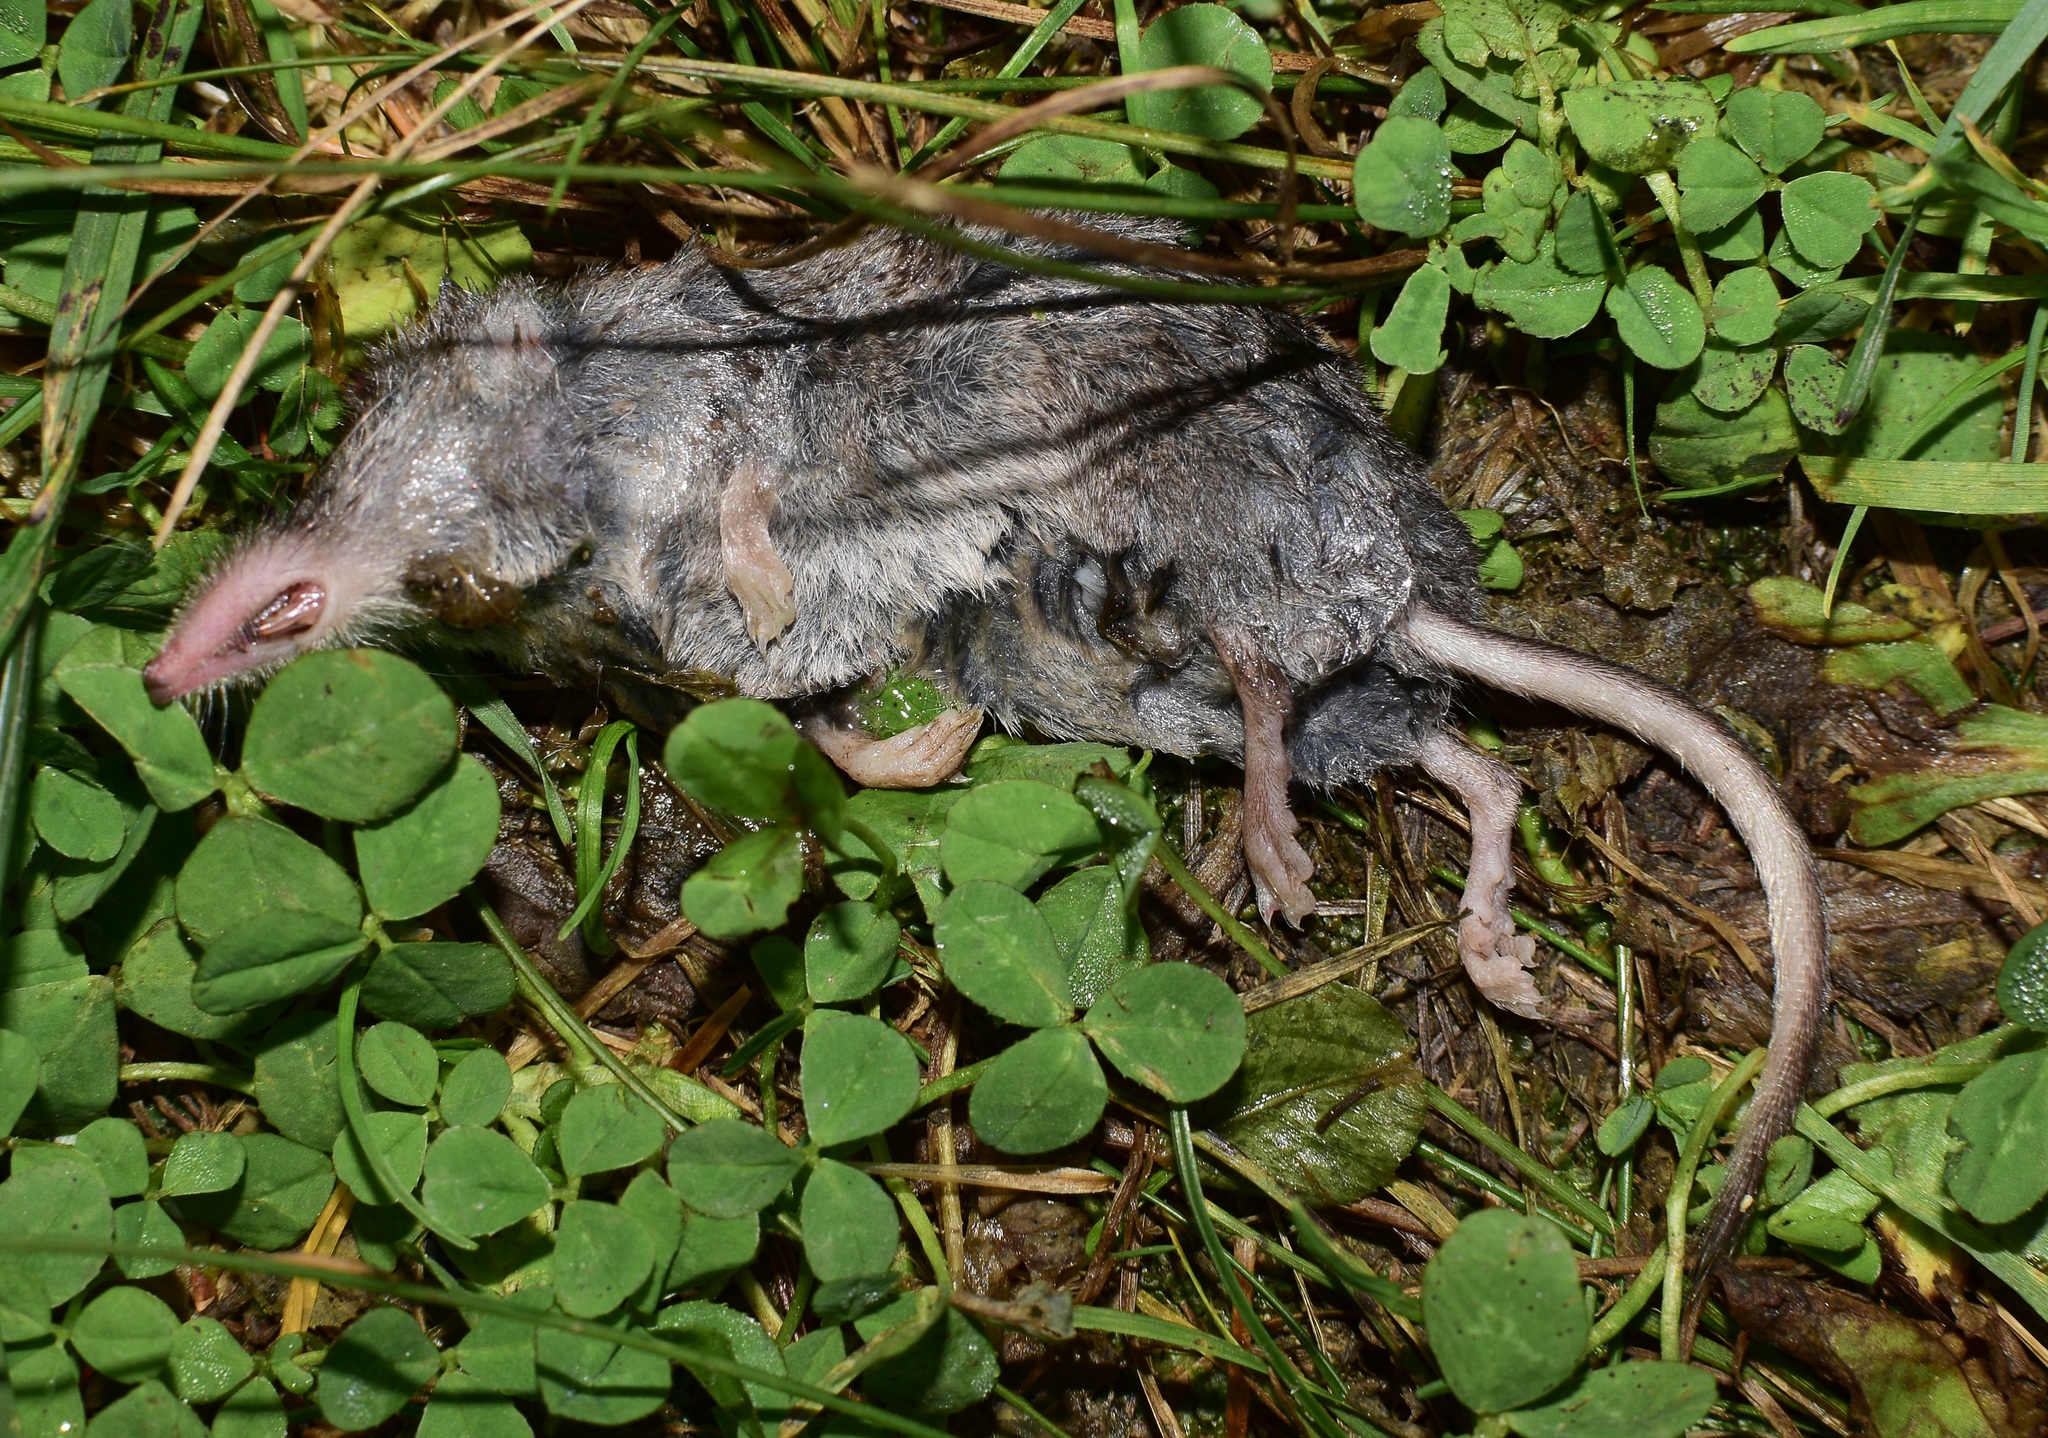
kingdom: Animalia
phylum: Chordata
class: Mammalia
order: Soricomorpha
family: Soricidae
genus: Sorex
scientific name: Sorex fumeus
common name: Smoky shrew
